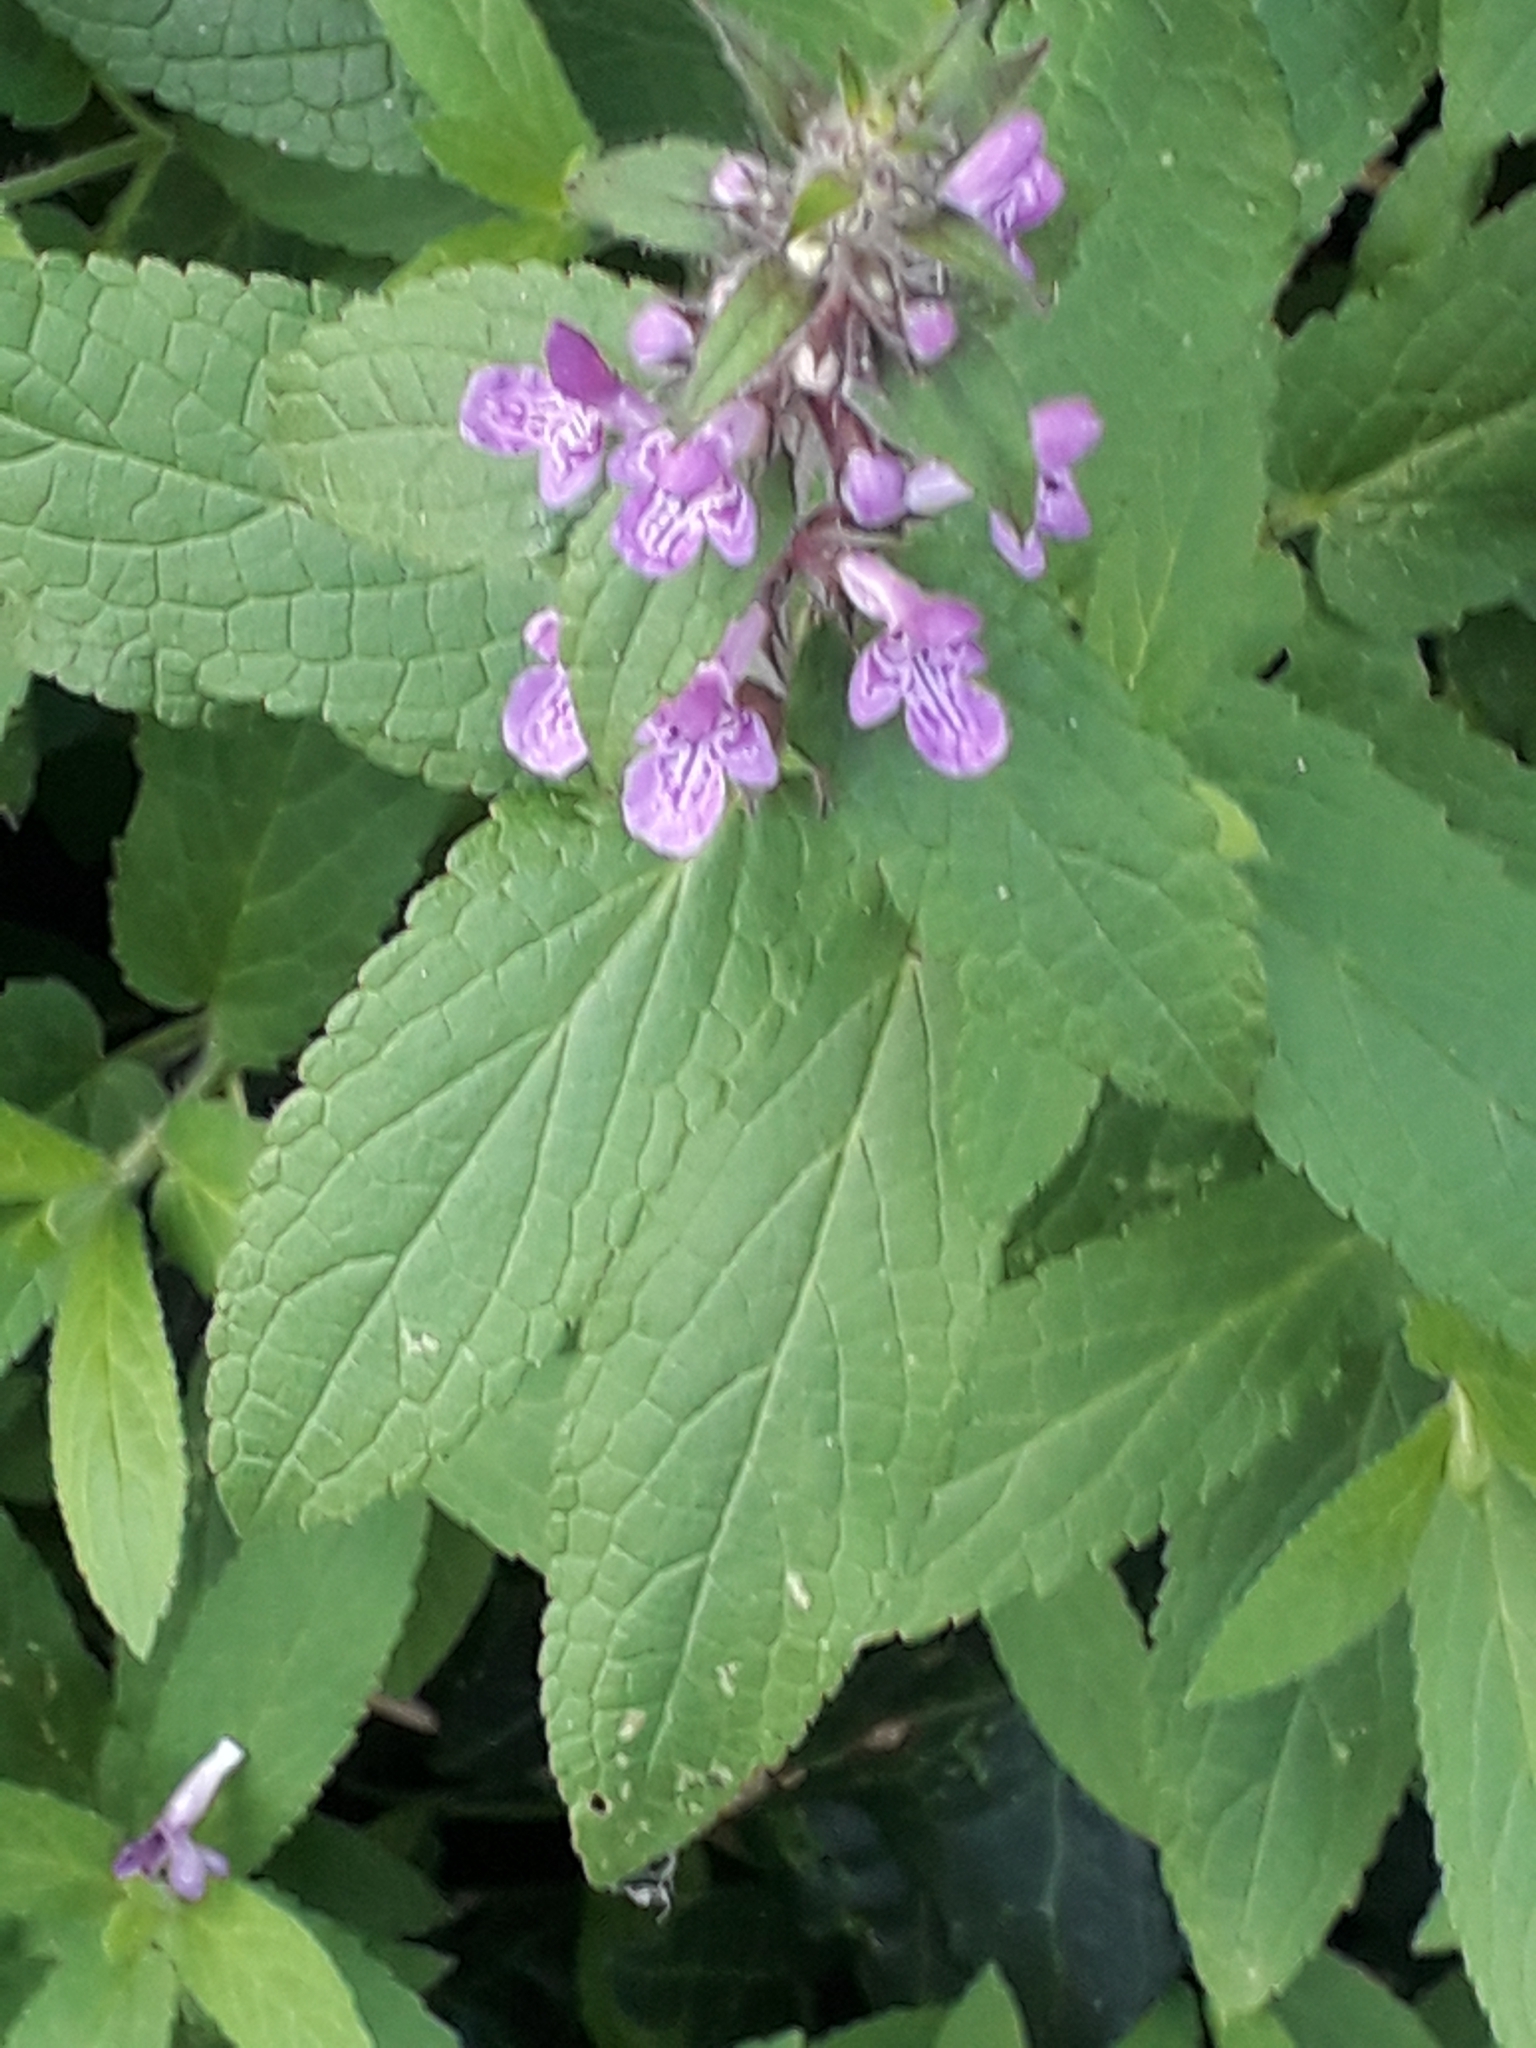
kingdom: Plantae
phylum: Tracheophyta
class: Magnoliopsida
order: Lamiales
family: Lamiaceae
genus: Stachys
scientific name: Stachys palustris
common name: Marsh woundwort
